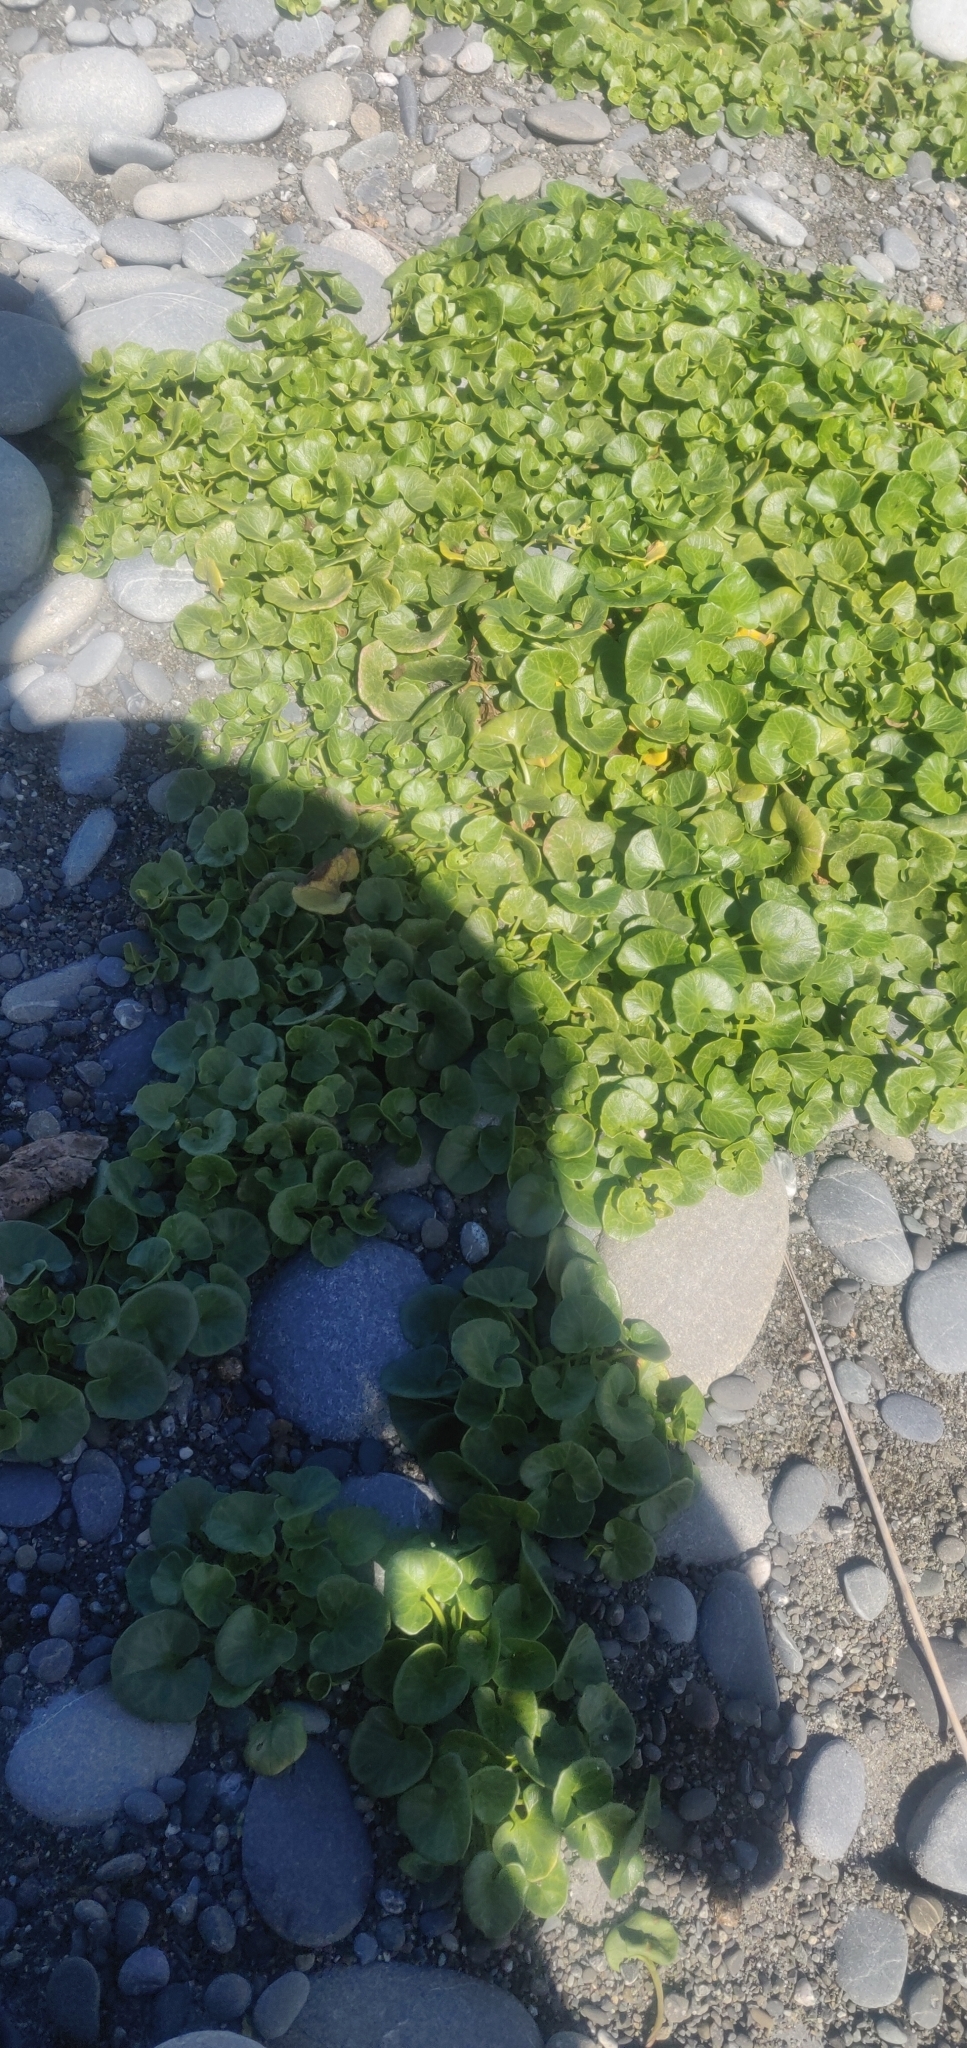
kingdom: Plantae
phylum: Tracheophyta
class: Magnoliopsida
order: Solanales
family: Convolvulaceae
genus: Calystegia
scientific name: Calystegia soldanella
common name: Sea bindweed
